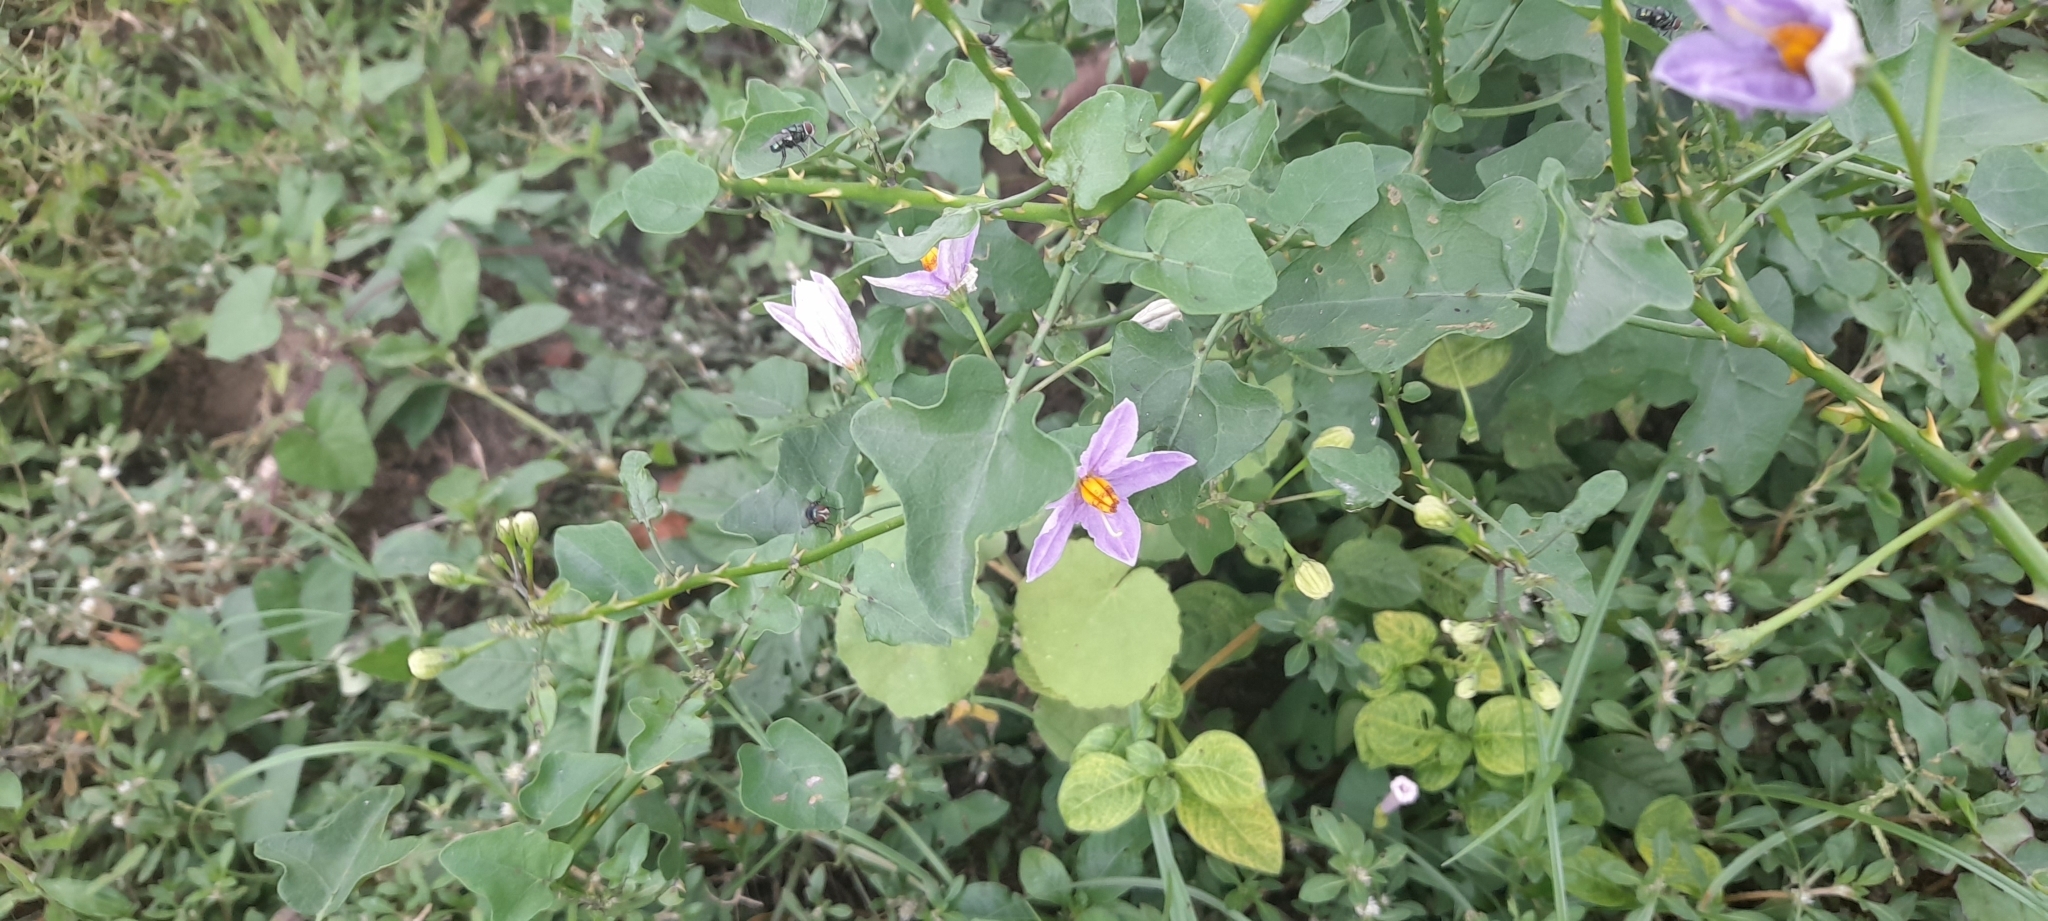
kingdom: Plantae
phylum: Tracheophyta
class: Magnoliopsida
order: Solanales
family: Solanaceae
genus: Solanum
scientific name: Solanum trilobatum
